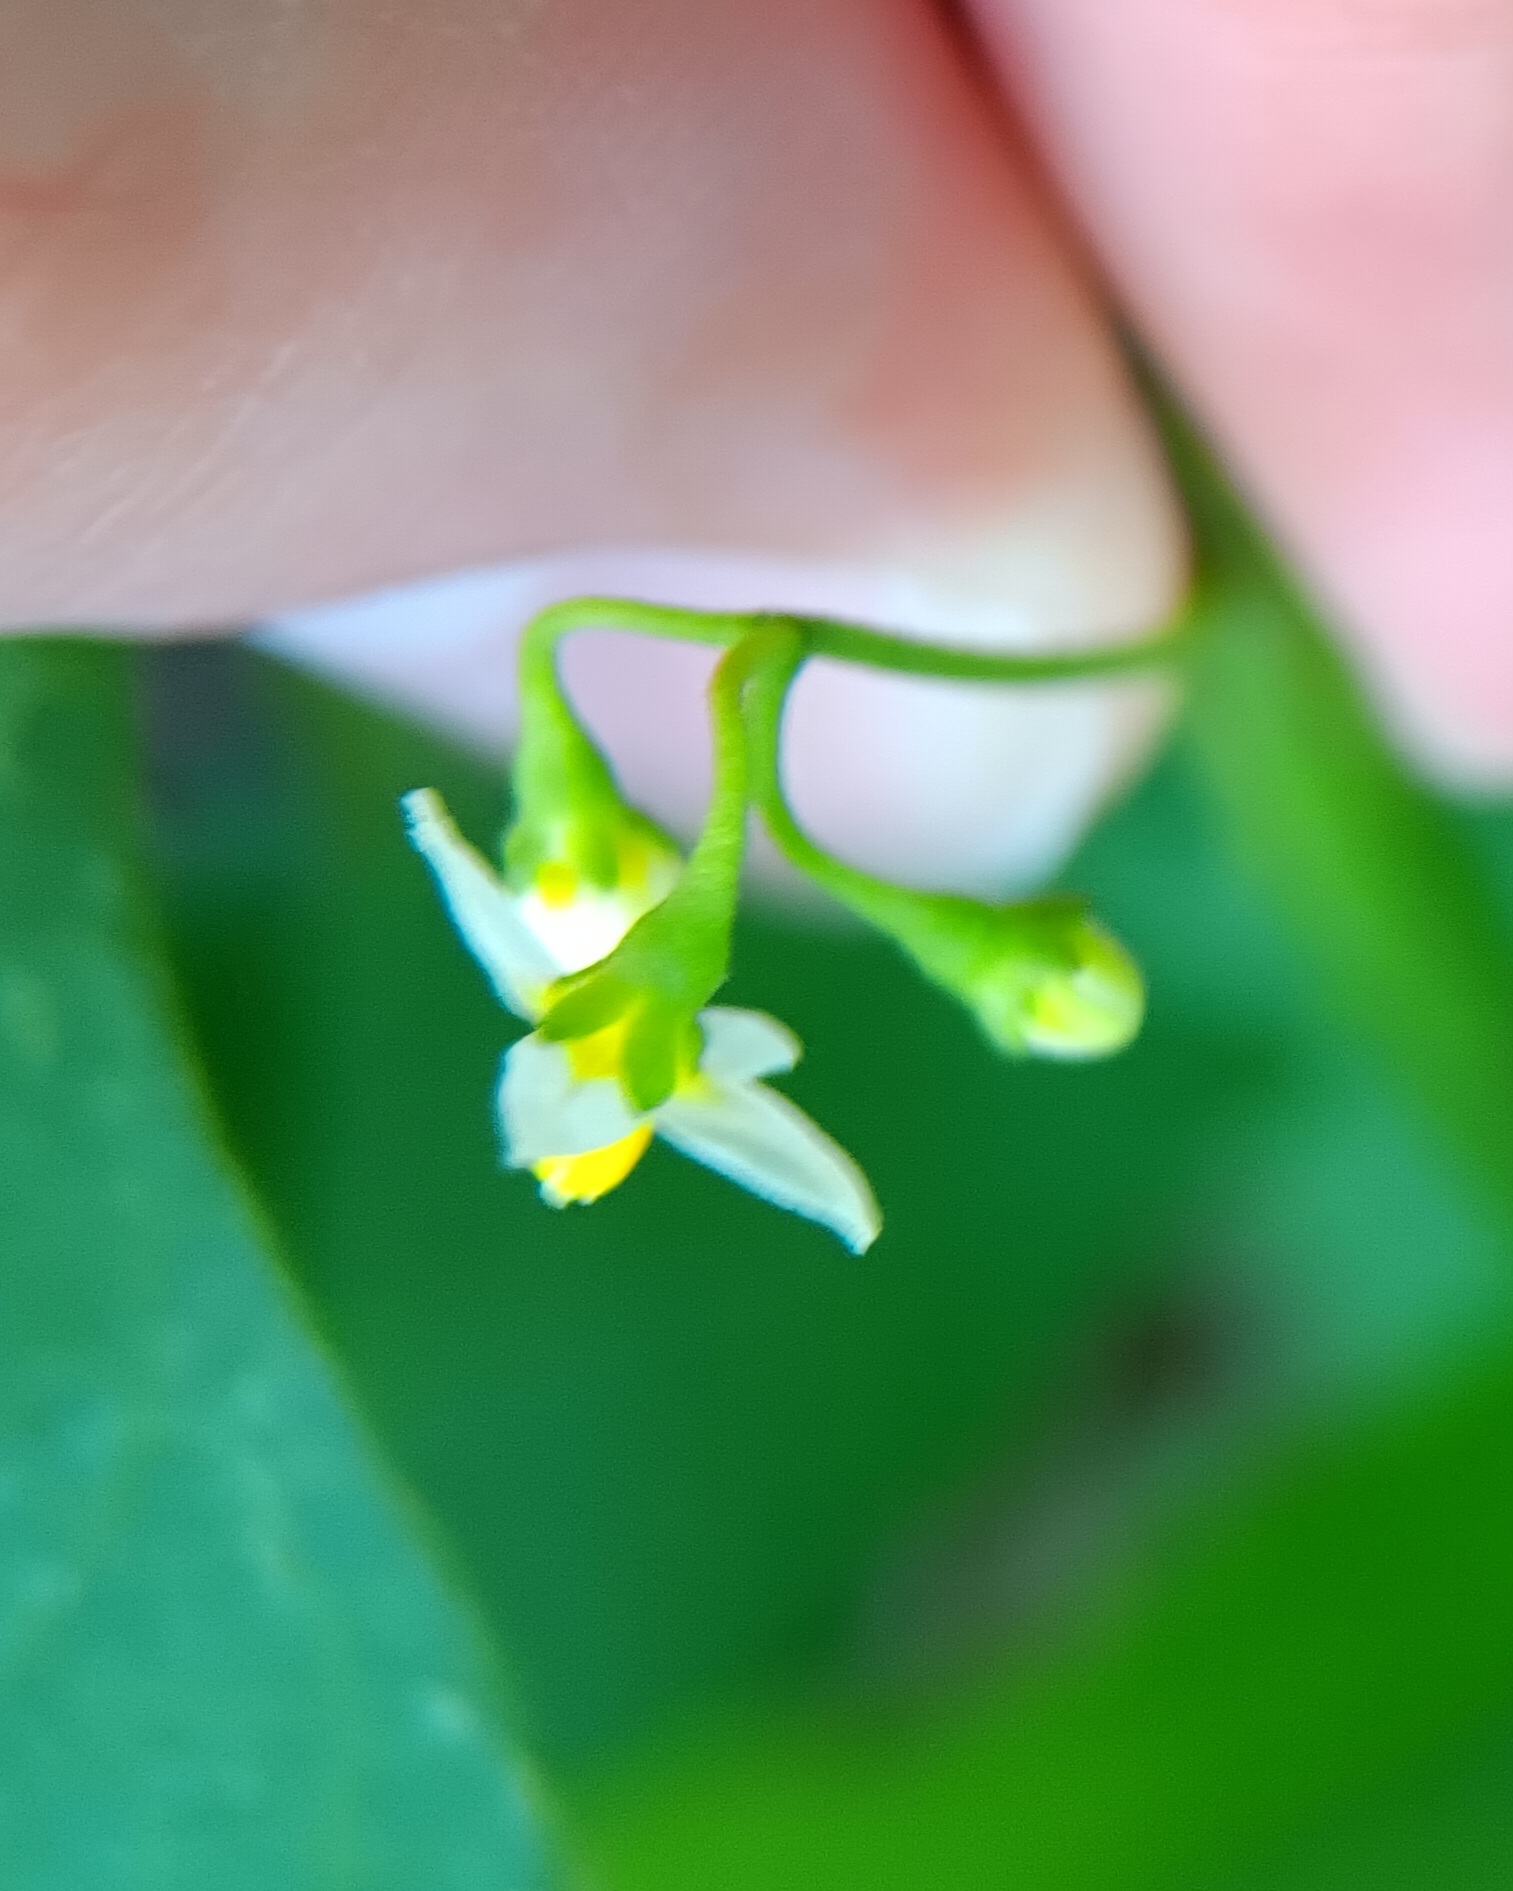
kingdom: Plantae
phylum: Tracheophyta
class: Magnoliopsida
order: Solanales
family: Solanaceae
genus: Solanum
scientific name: Solanum americanum
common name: American black nightshade
